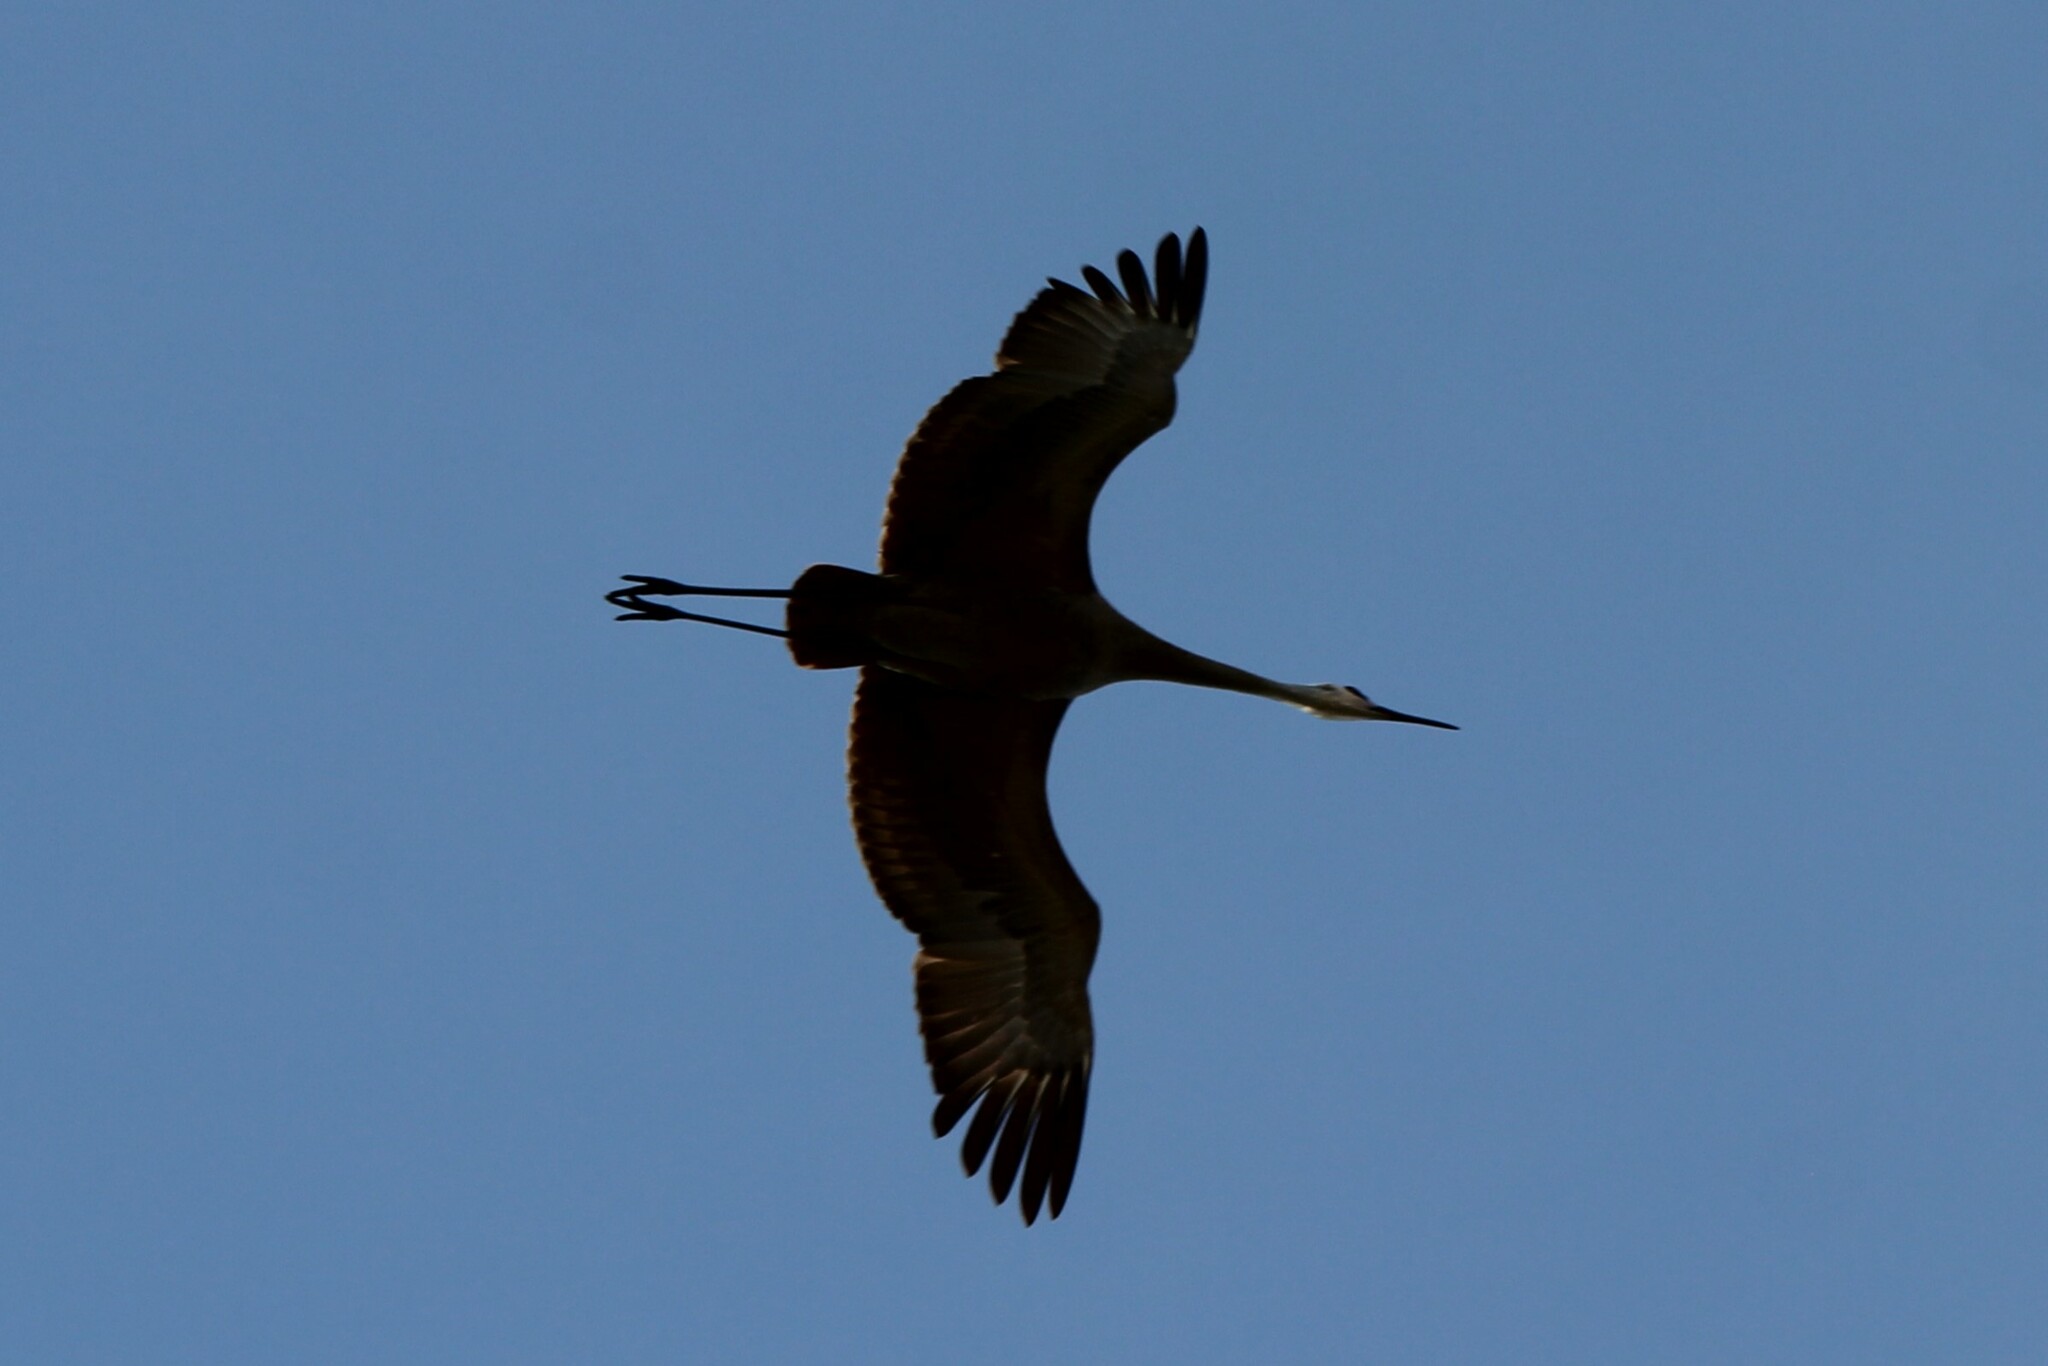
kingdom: Animalia
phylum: Chordata
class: Aves
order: Gruiformes
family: Gruidae
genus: Grus
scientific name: Grus canadensis
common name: Sandhill crane
